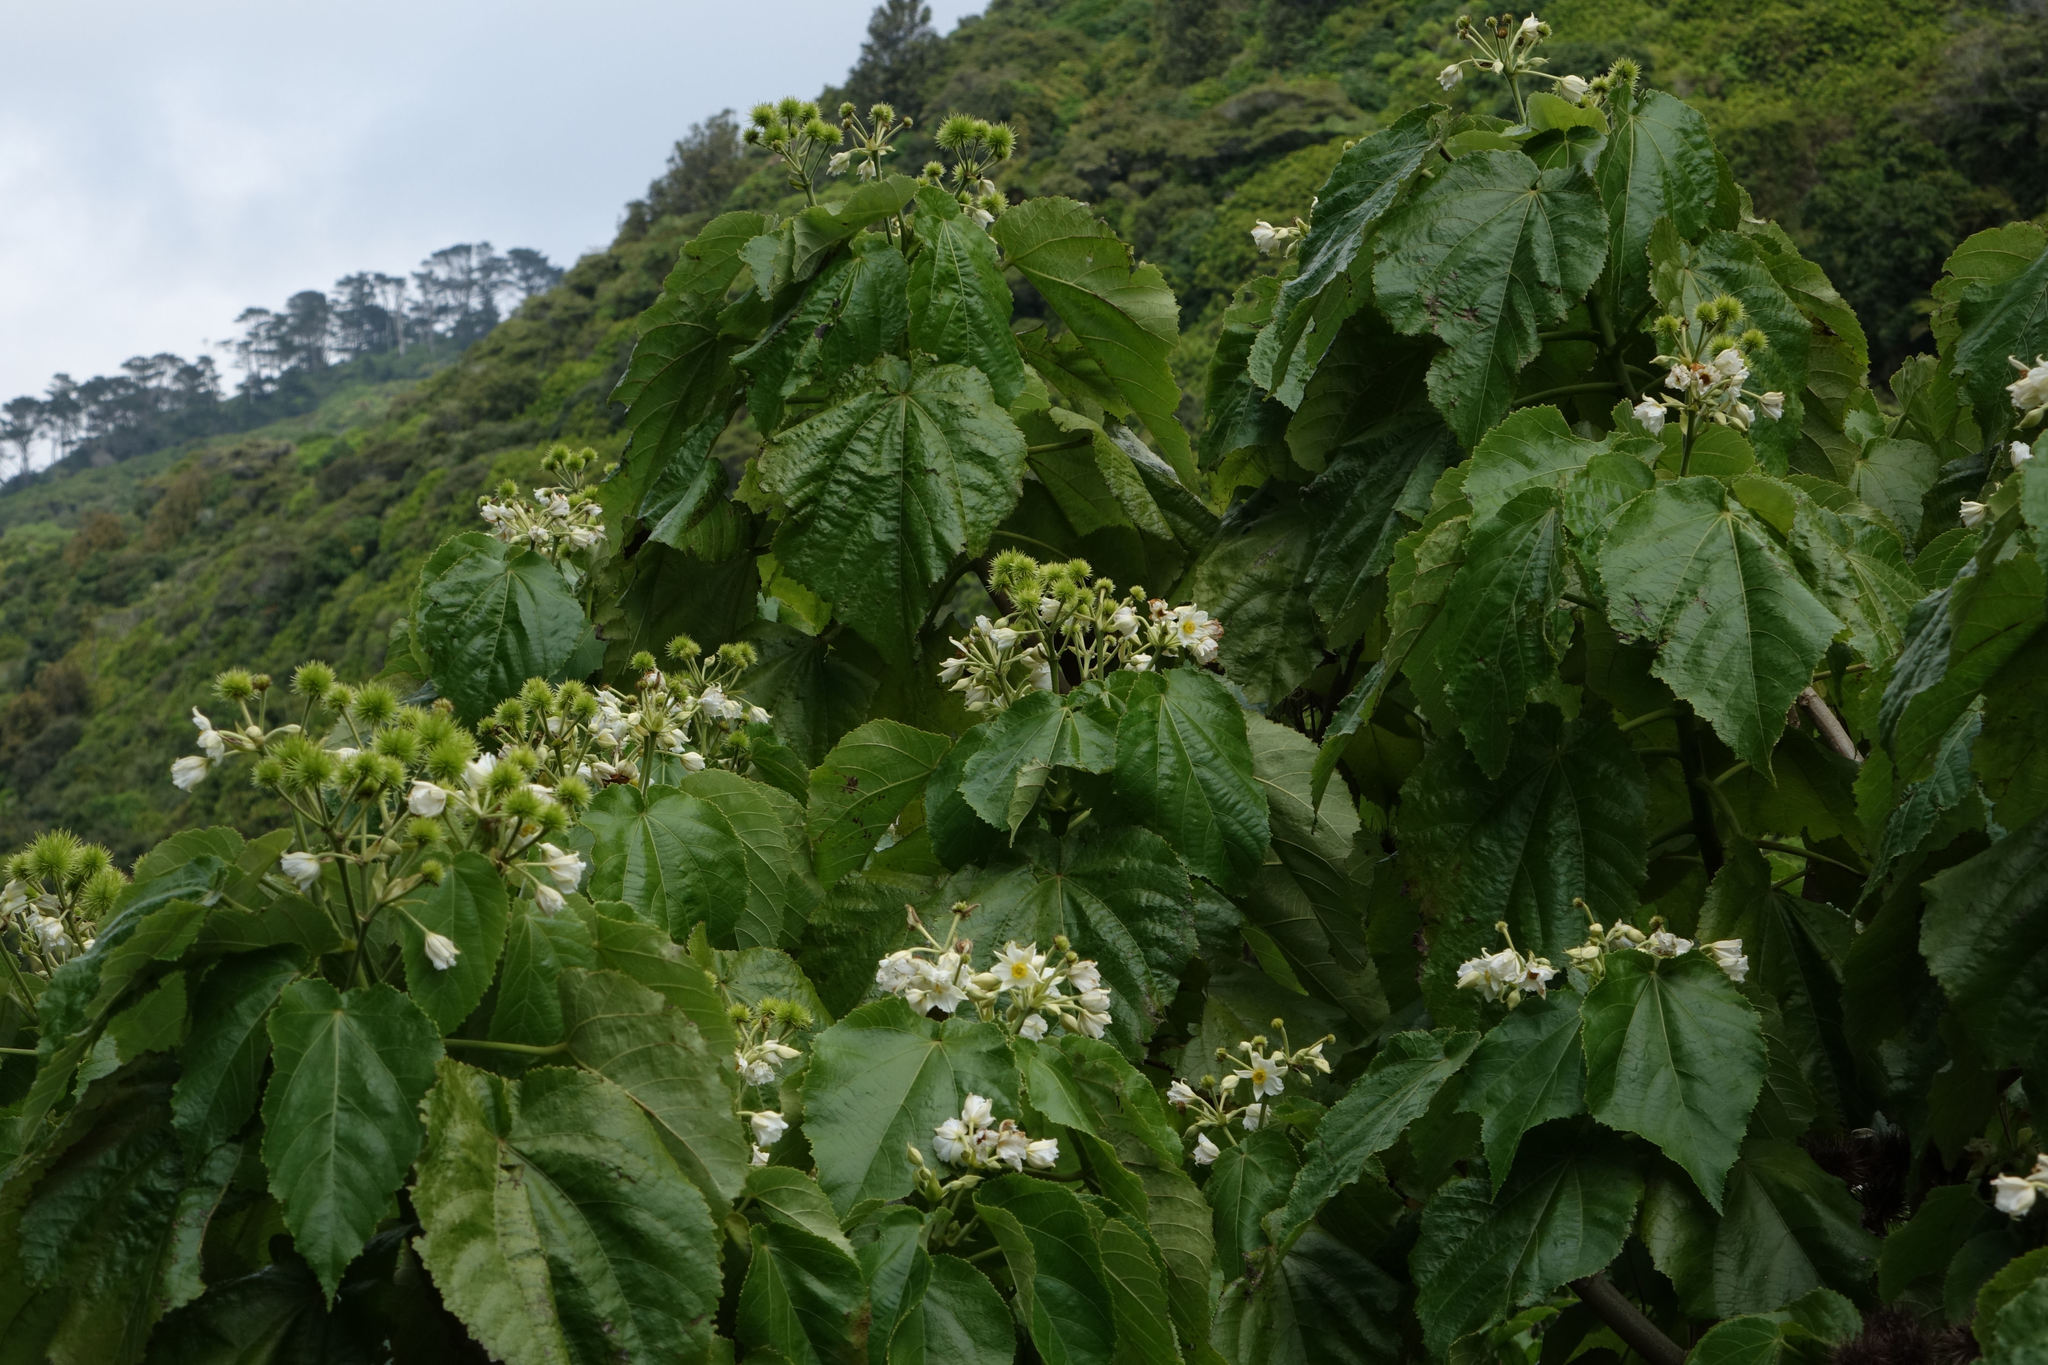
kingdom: Plantae
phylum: Tracheophyta
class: Magnoliopsida
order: Malvales
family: Malvaceae
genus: Entelea
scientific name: Entelea arborescens
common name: New zealand-mulberry
